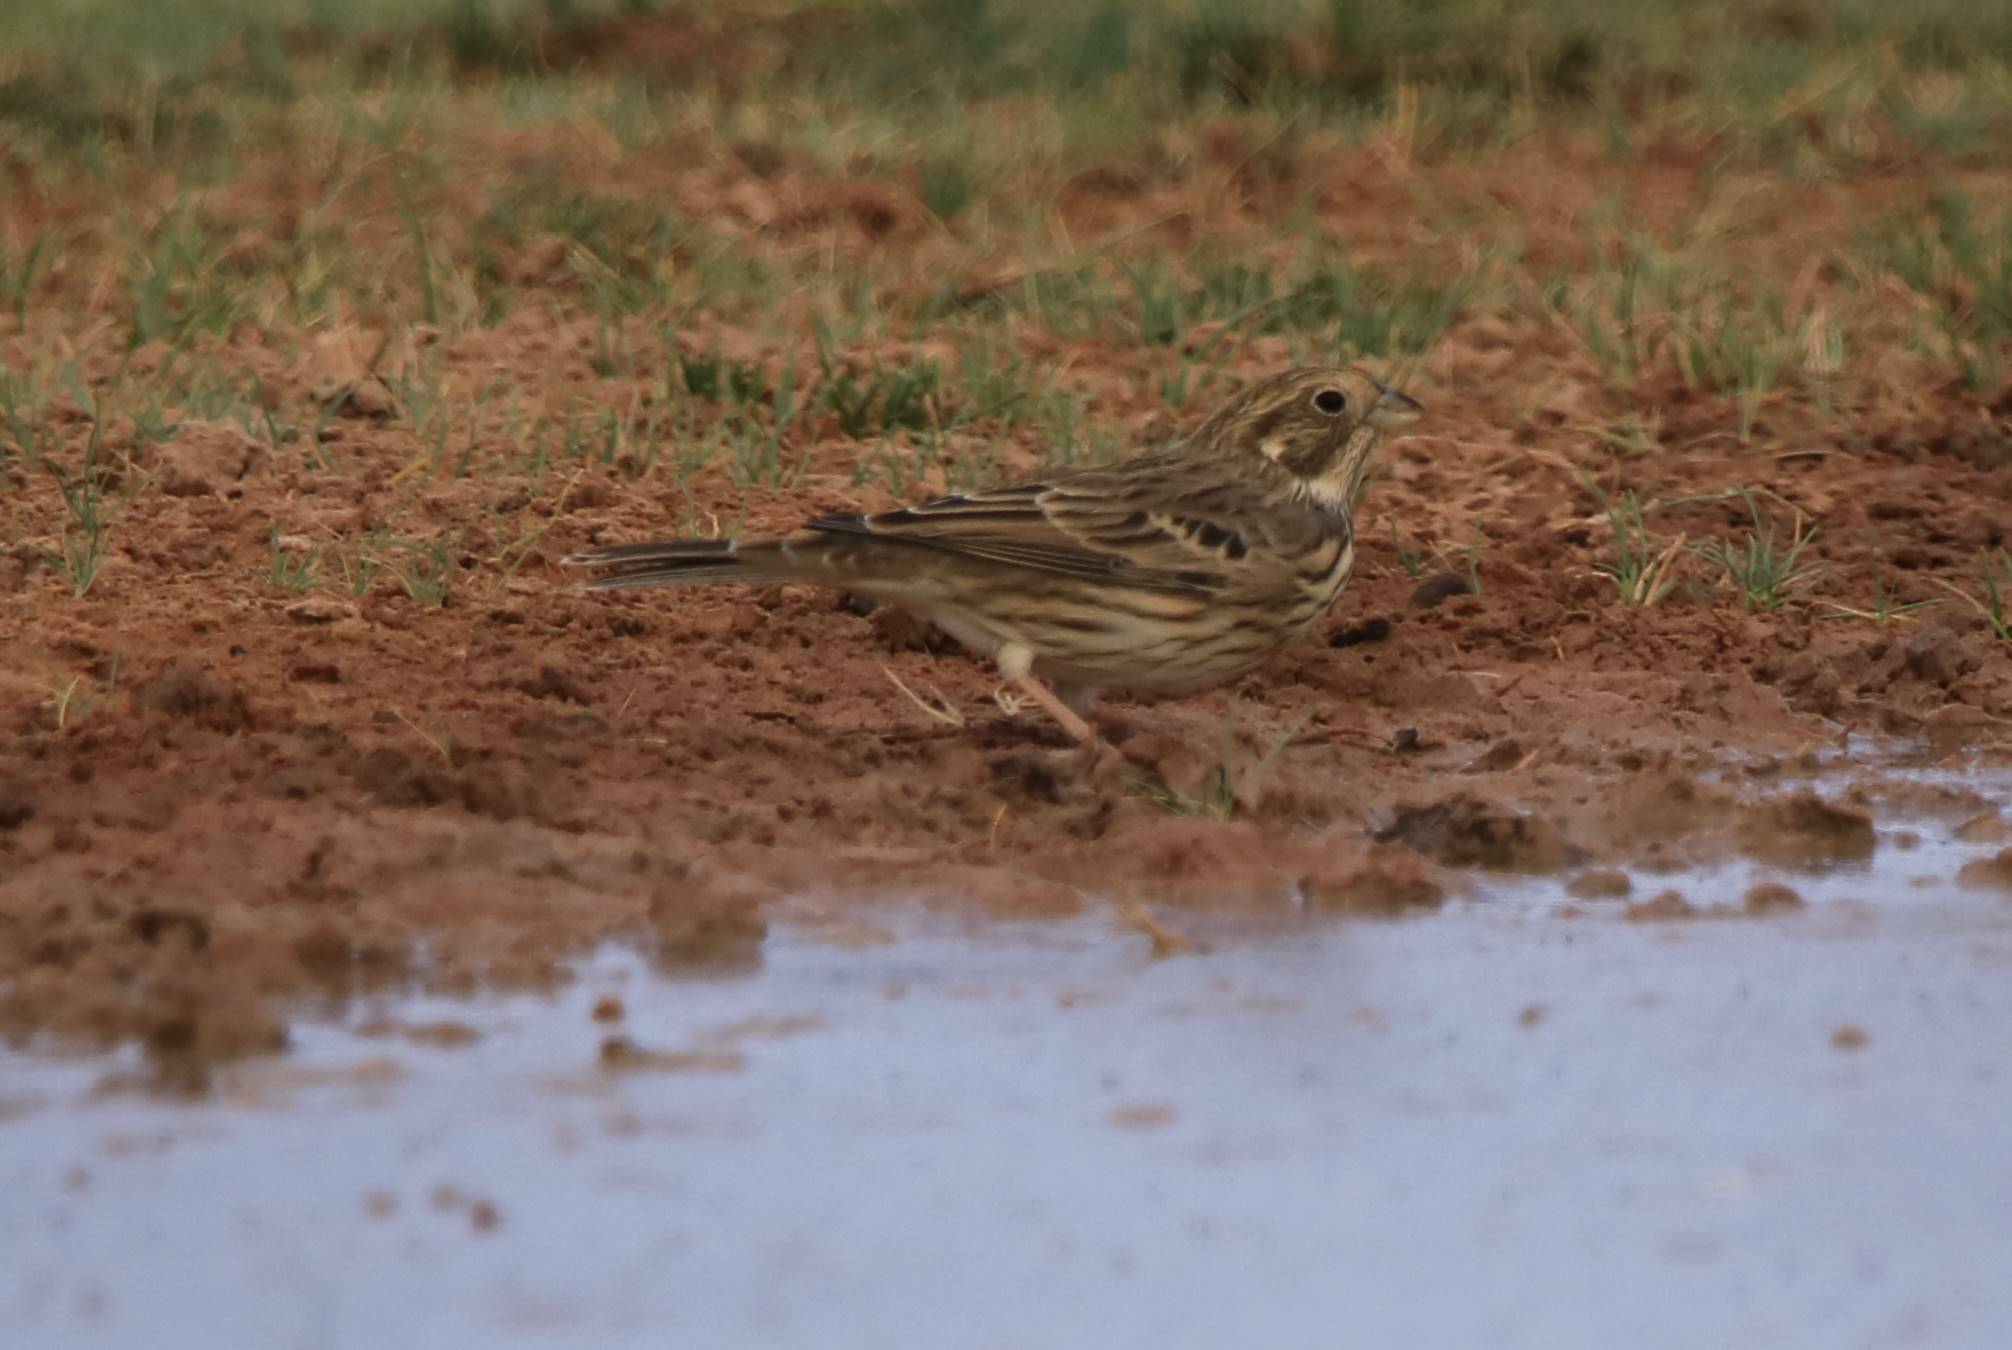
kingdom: Animalia
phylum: Chordata
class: Aves
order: Passeriformes
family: Emberizidae
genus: Emberiza
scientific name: Emberiza calandra
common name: Corn bunting
